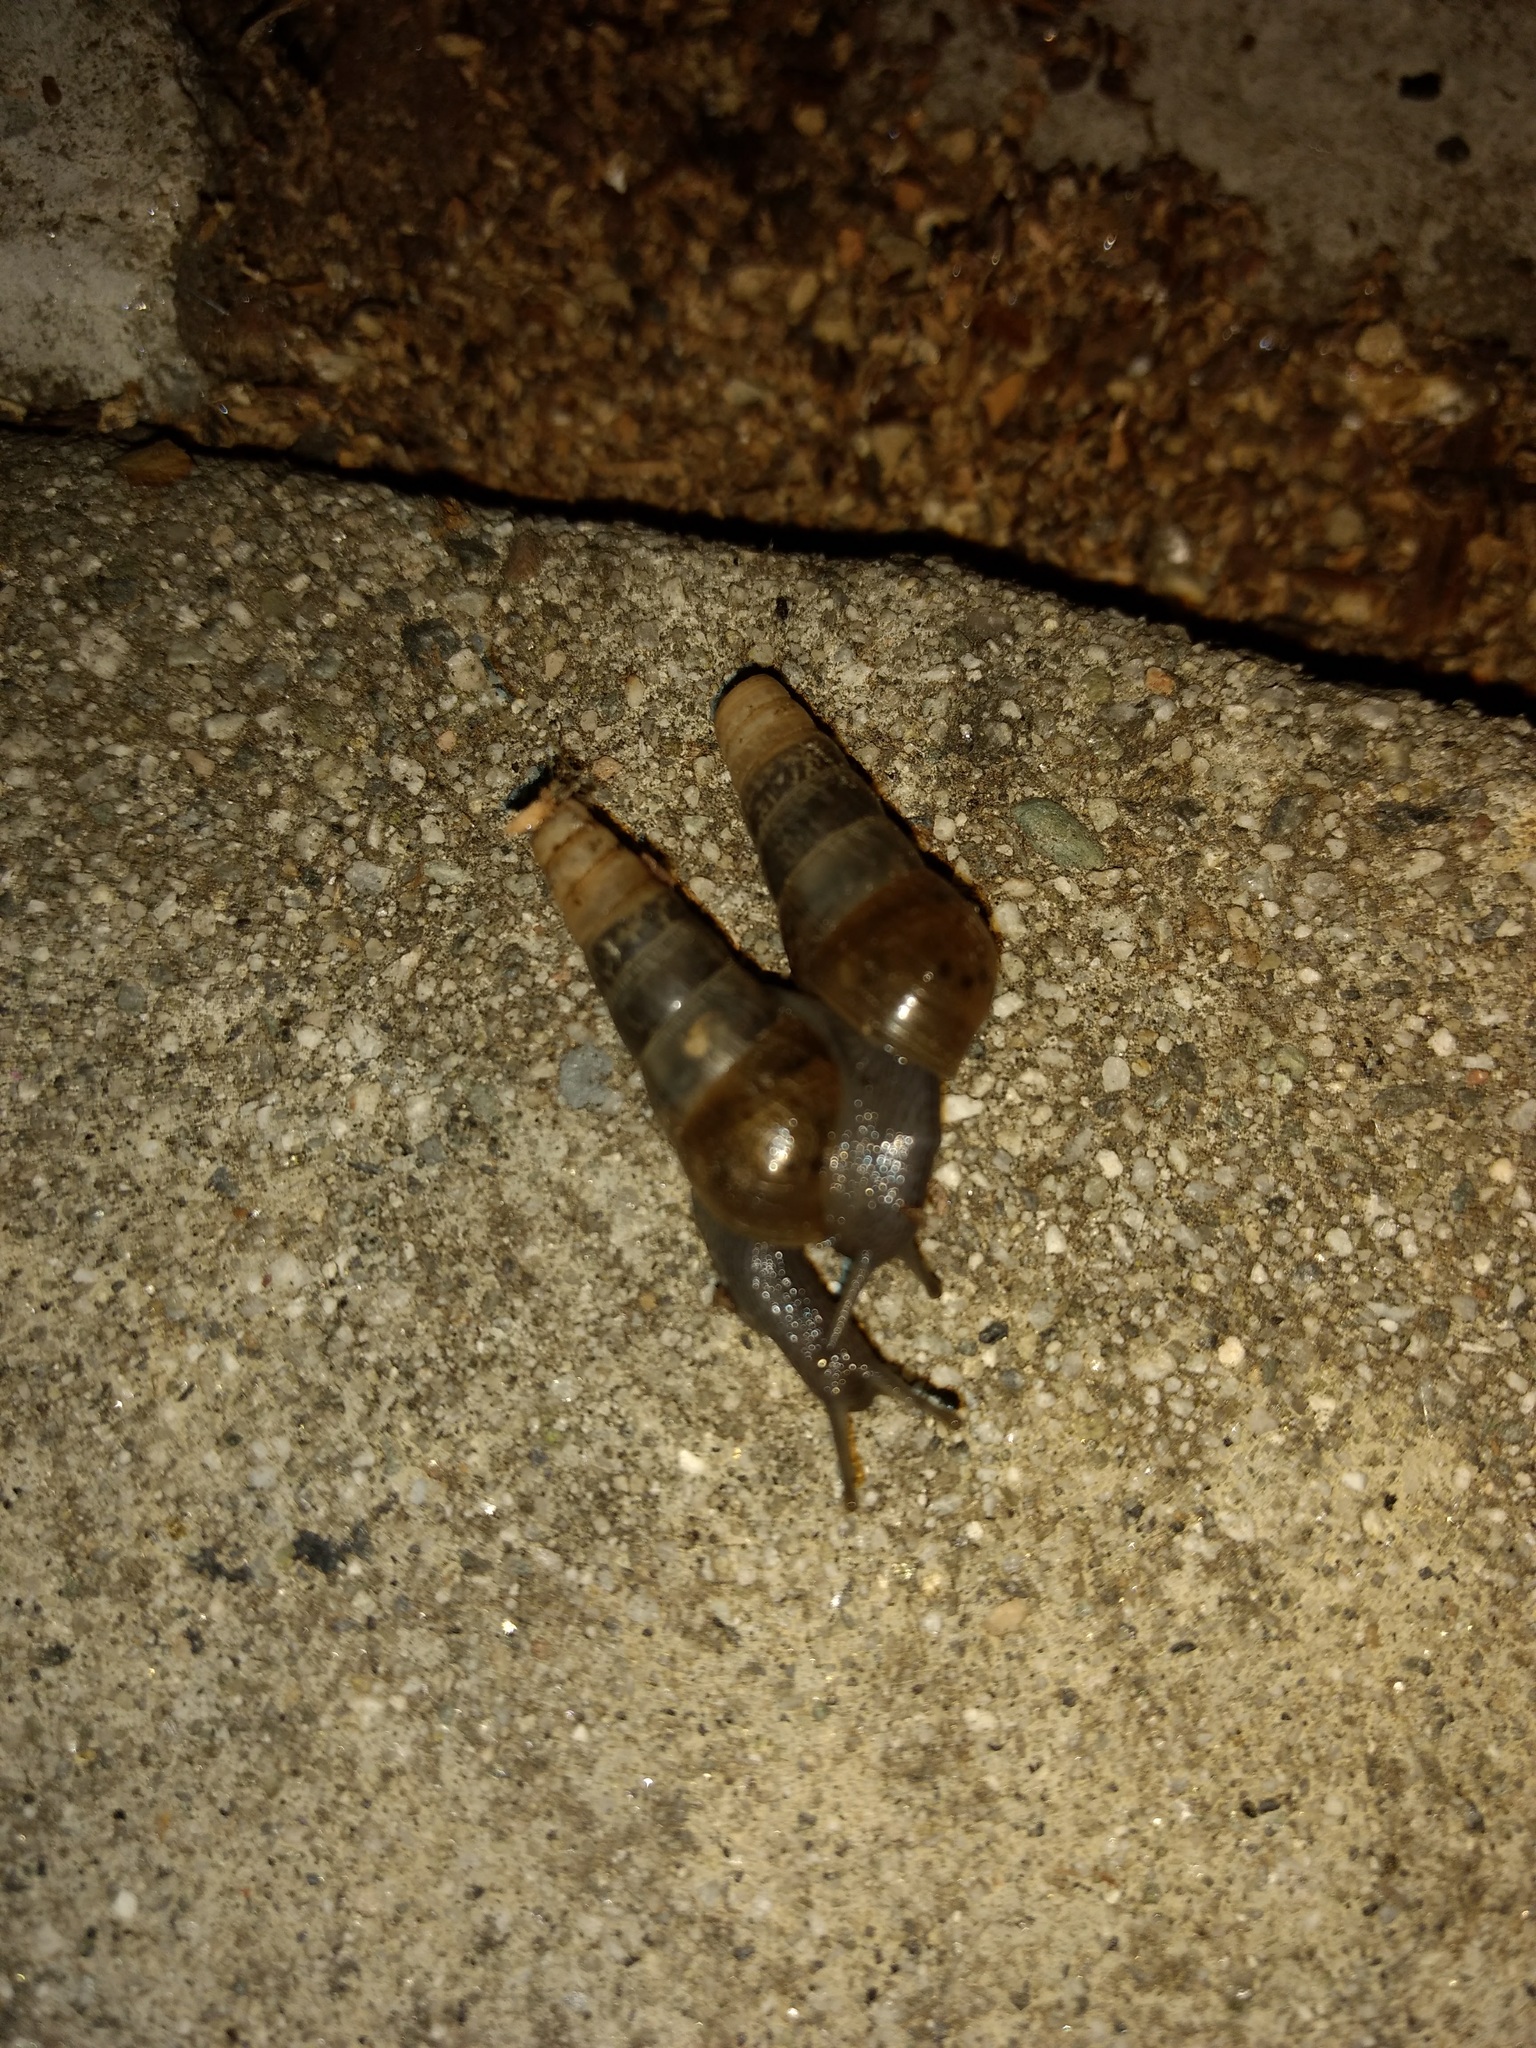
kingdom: Animalia
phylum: Mollusca
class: Gastropoda
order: Stylommatophora
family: Achatinidae
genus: Rumina
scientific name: Rumina decollata
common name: Decollate snail
